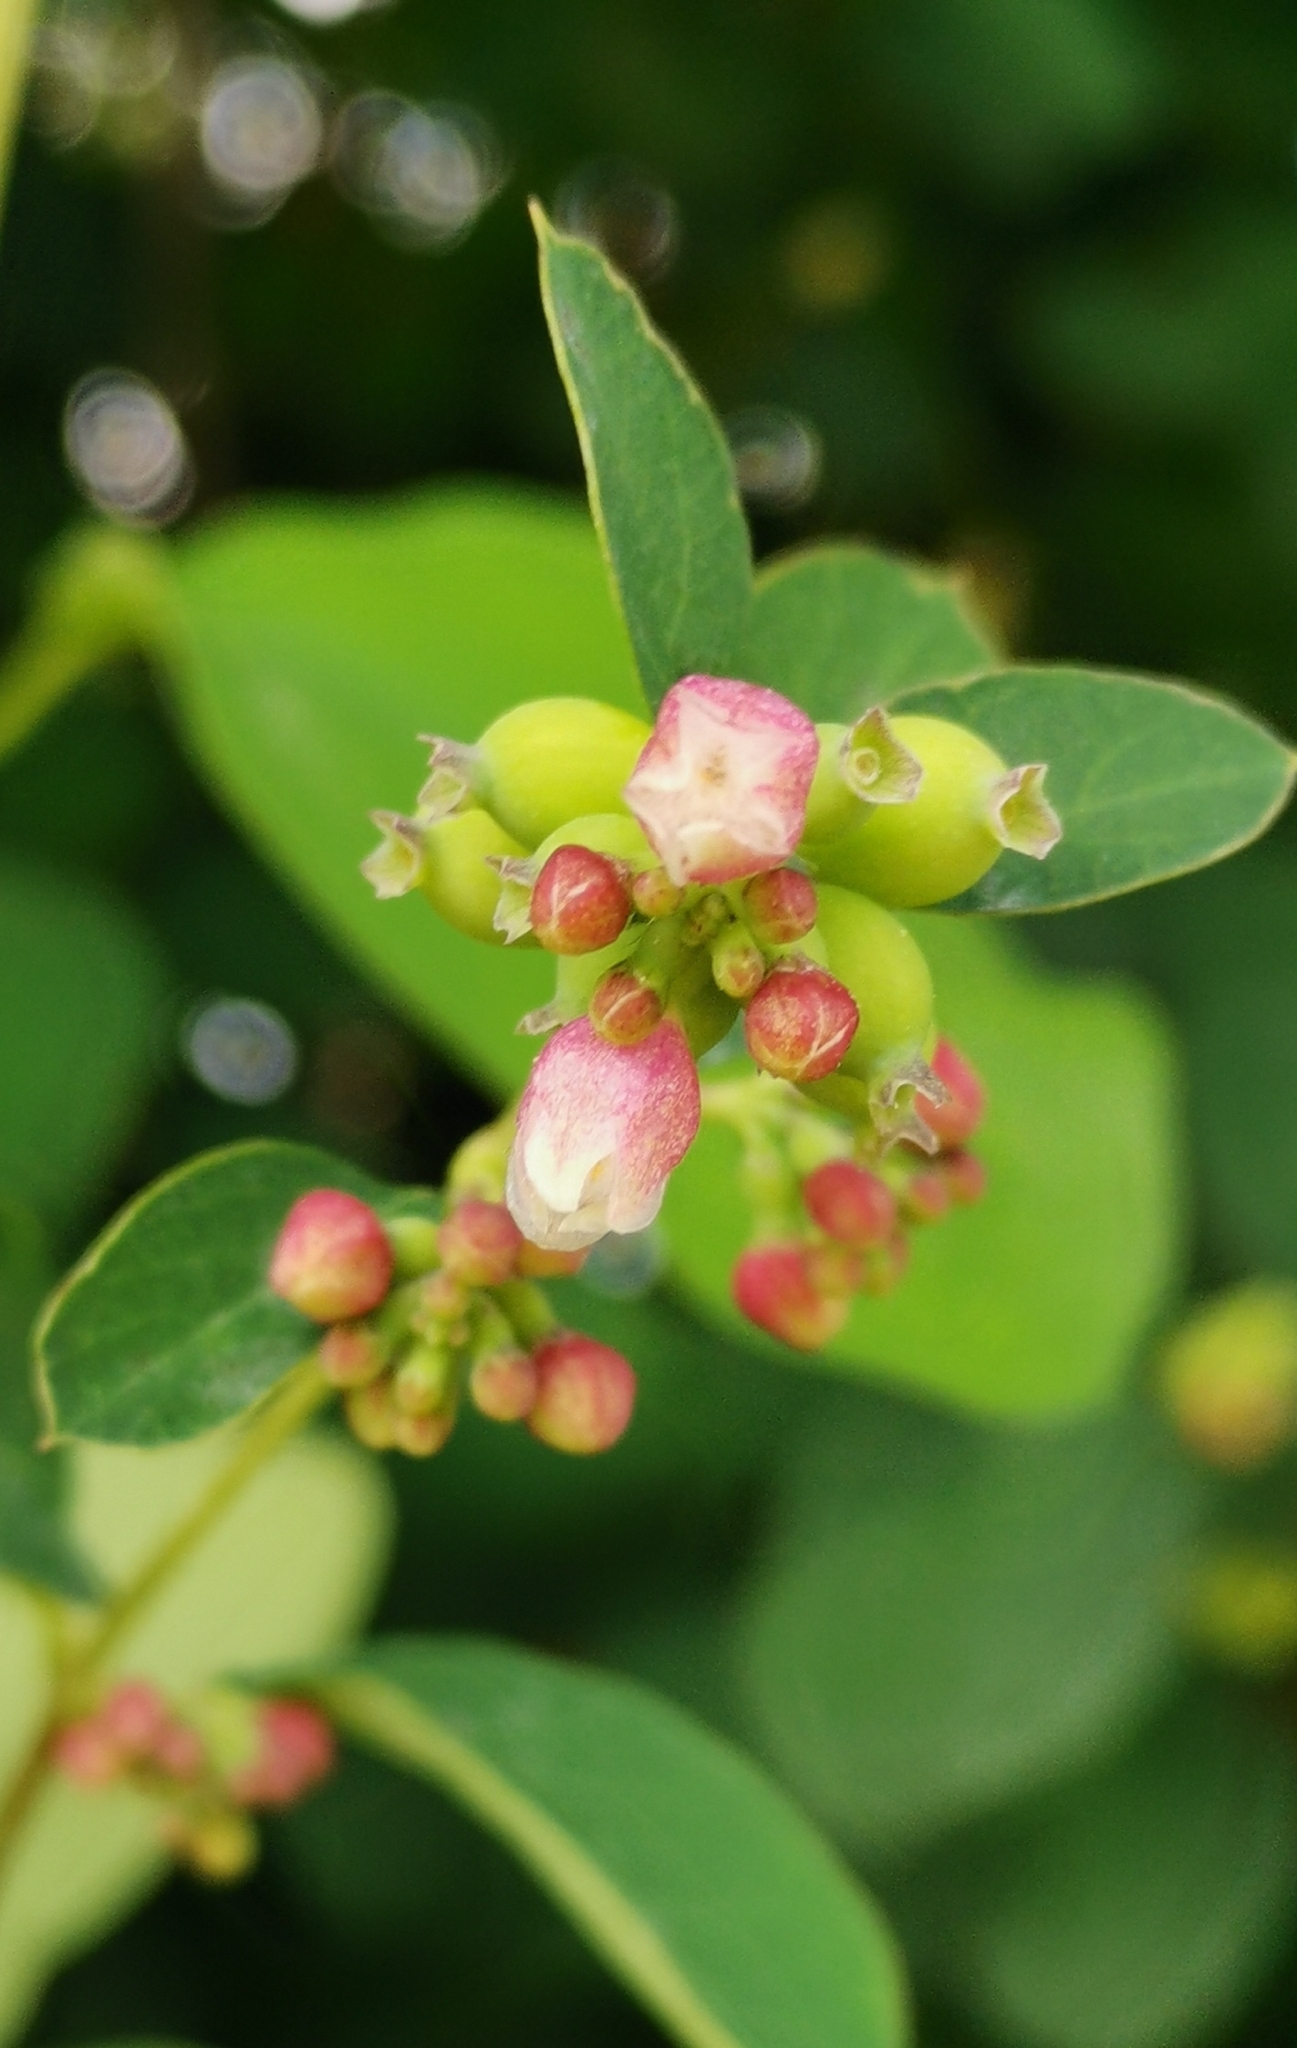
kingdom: Plantae
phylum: Tracheophyta
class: Magnoliopsida
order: Dipsacales
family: Caprifoliaceae
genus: Symphoricarpos
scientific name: Symphoricarpos albus
